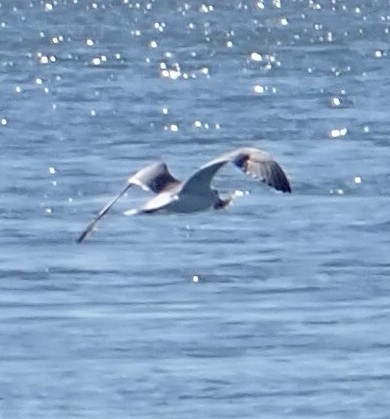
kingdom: Animalia
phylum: Chordata
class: Aves
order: Charadriiformes
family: Laridae
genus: Leucophaeus
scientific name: Leucophaeus atricilla
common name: Laughing gull
